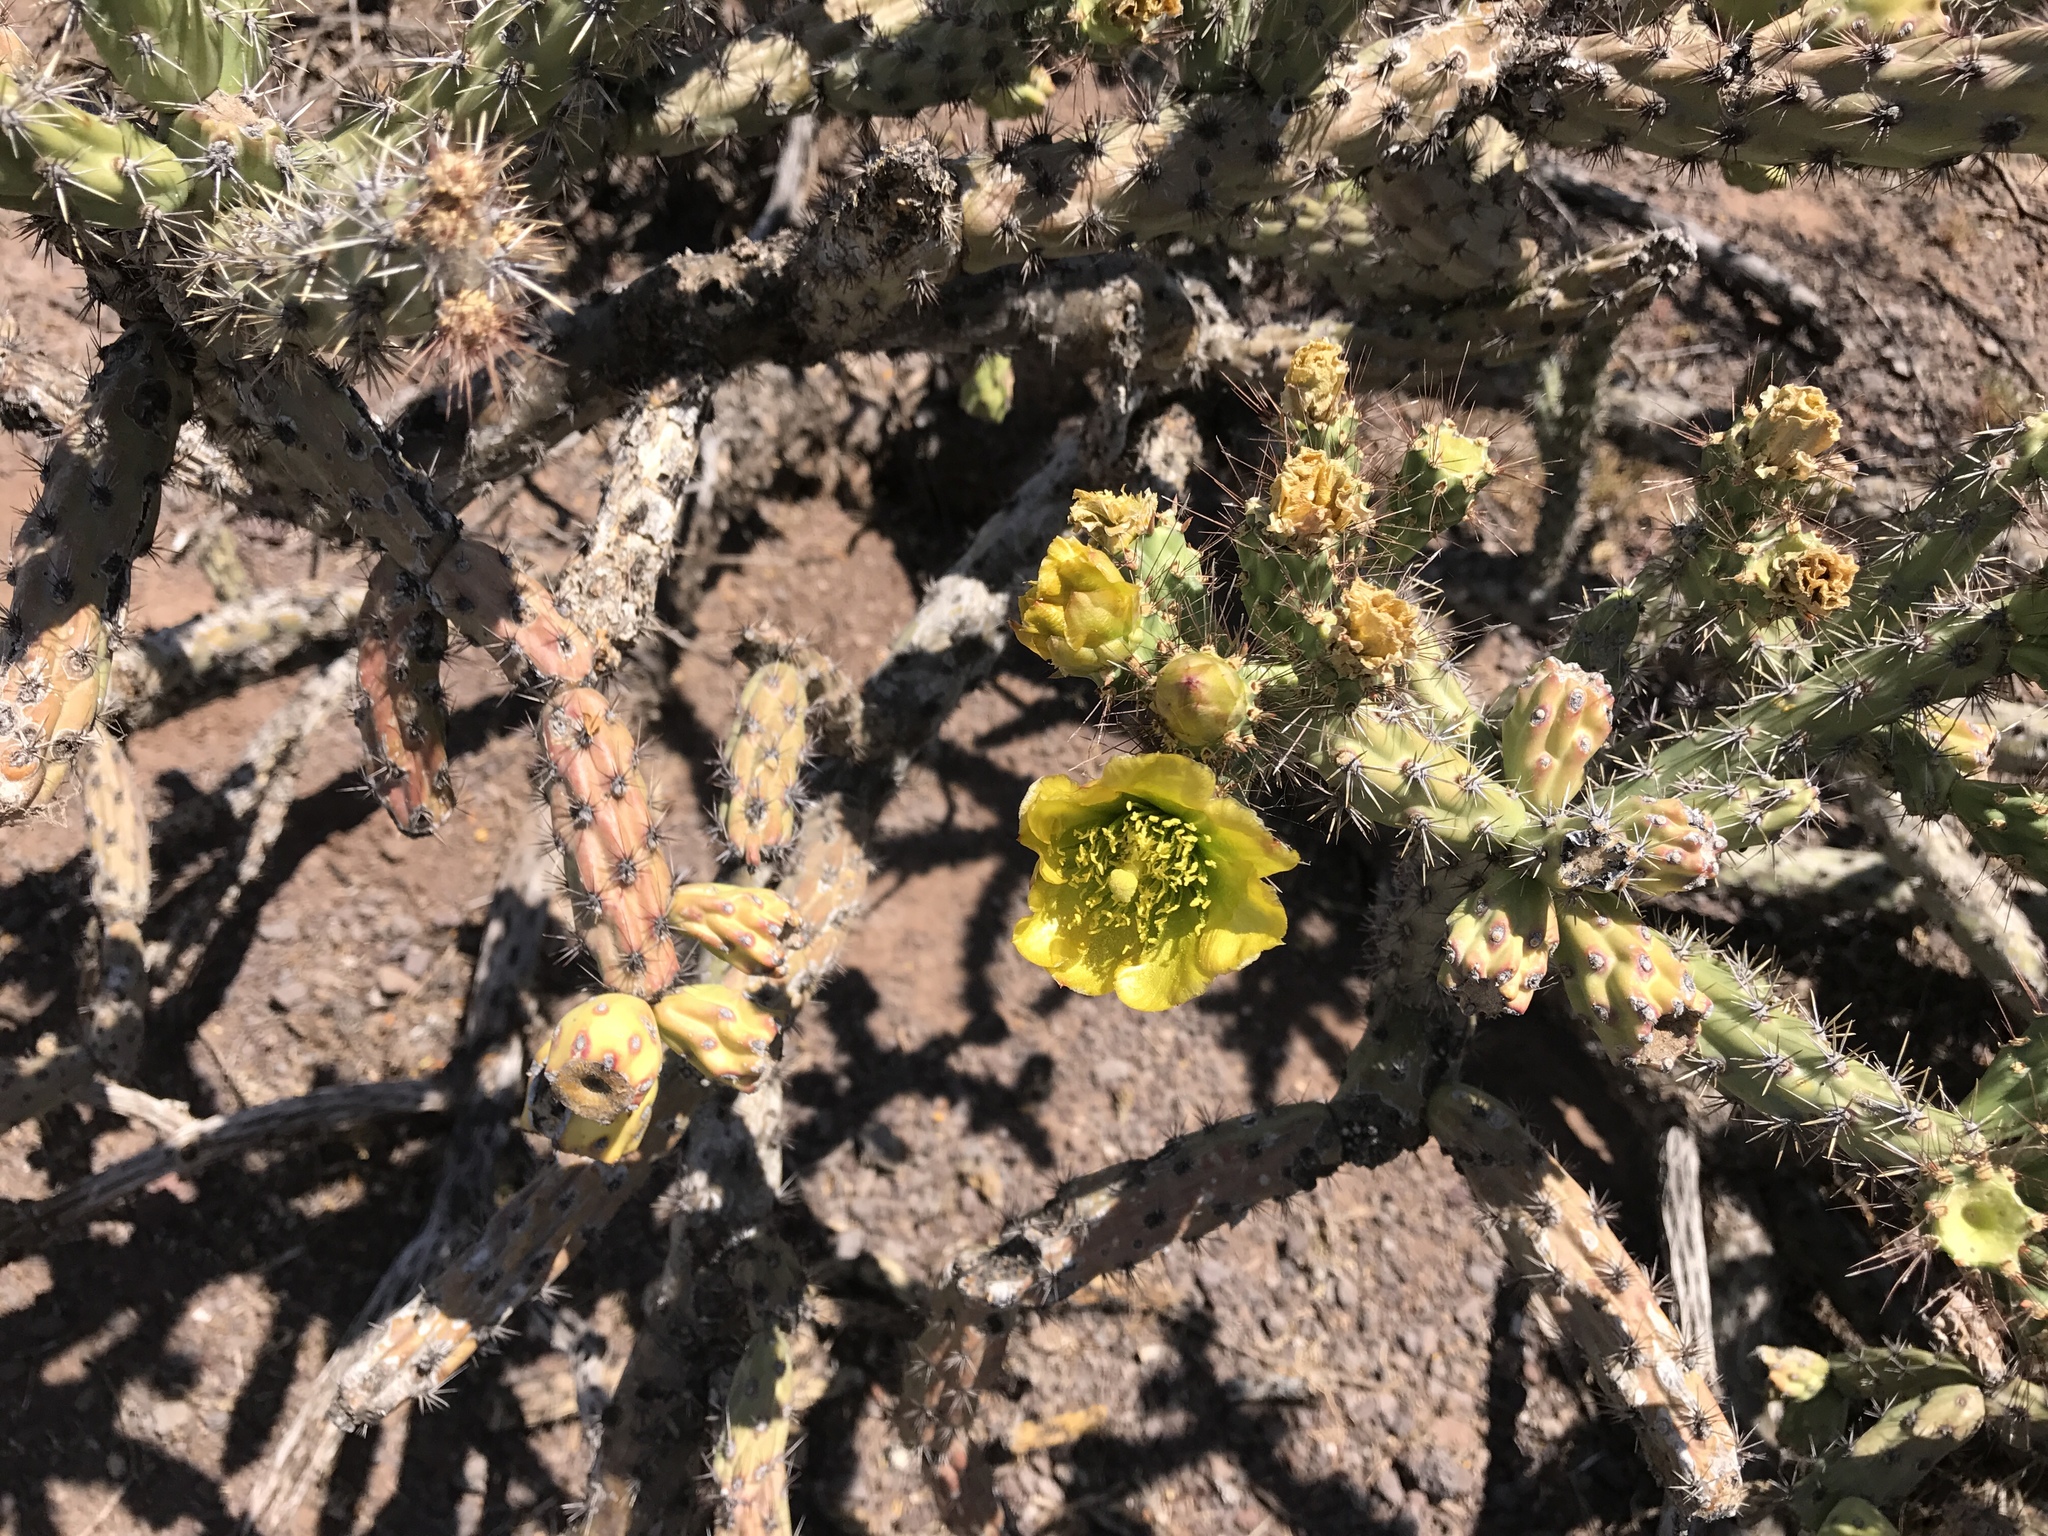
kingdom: Plantae
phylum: Tracheophyta
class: Magnoliopsida
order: Caryophyllales
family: Cactaceae
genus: Cylindropuntia
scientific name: Cylindropuntia thurberi
